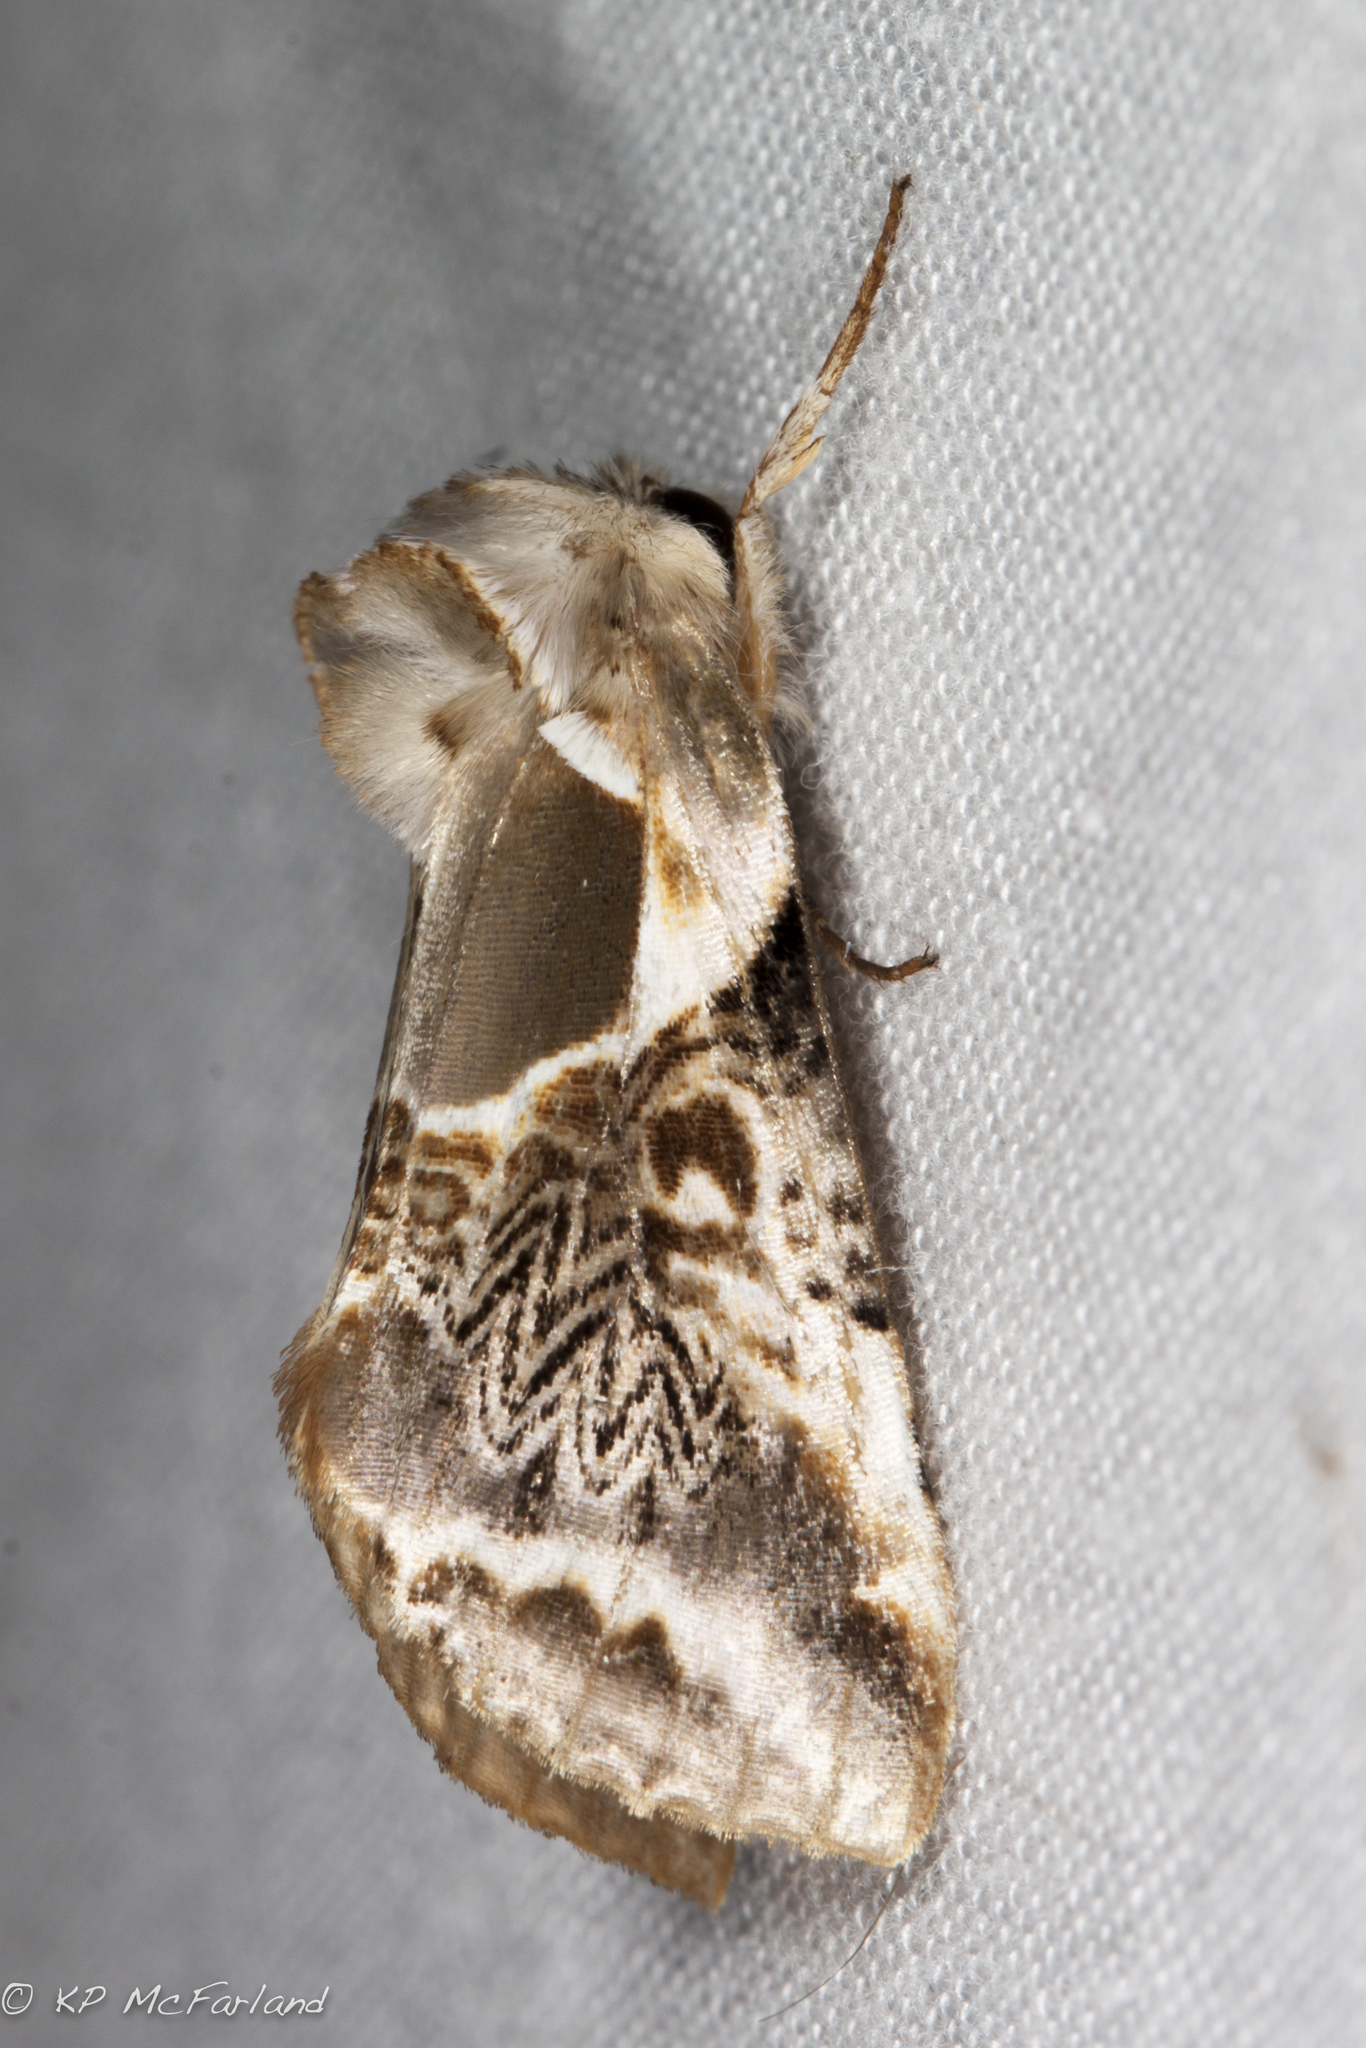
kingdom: Animalia
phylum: Arthropoda
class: Insecta
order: Lepidoptera
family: Drepanidae
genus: Habrosyne
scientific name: Habrosyne scripta
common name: Lettered habrosyne moth
